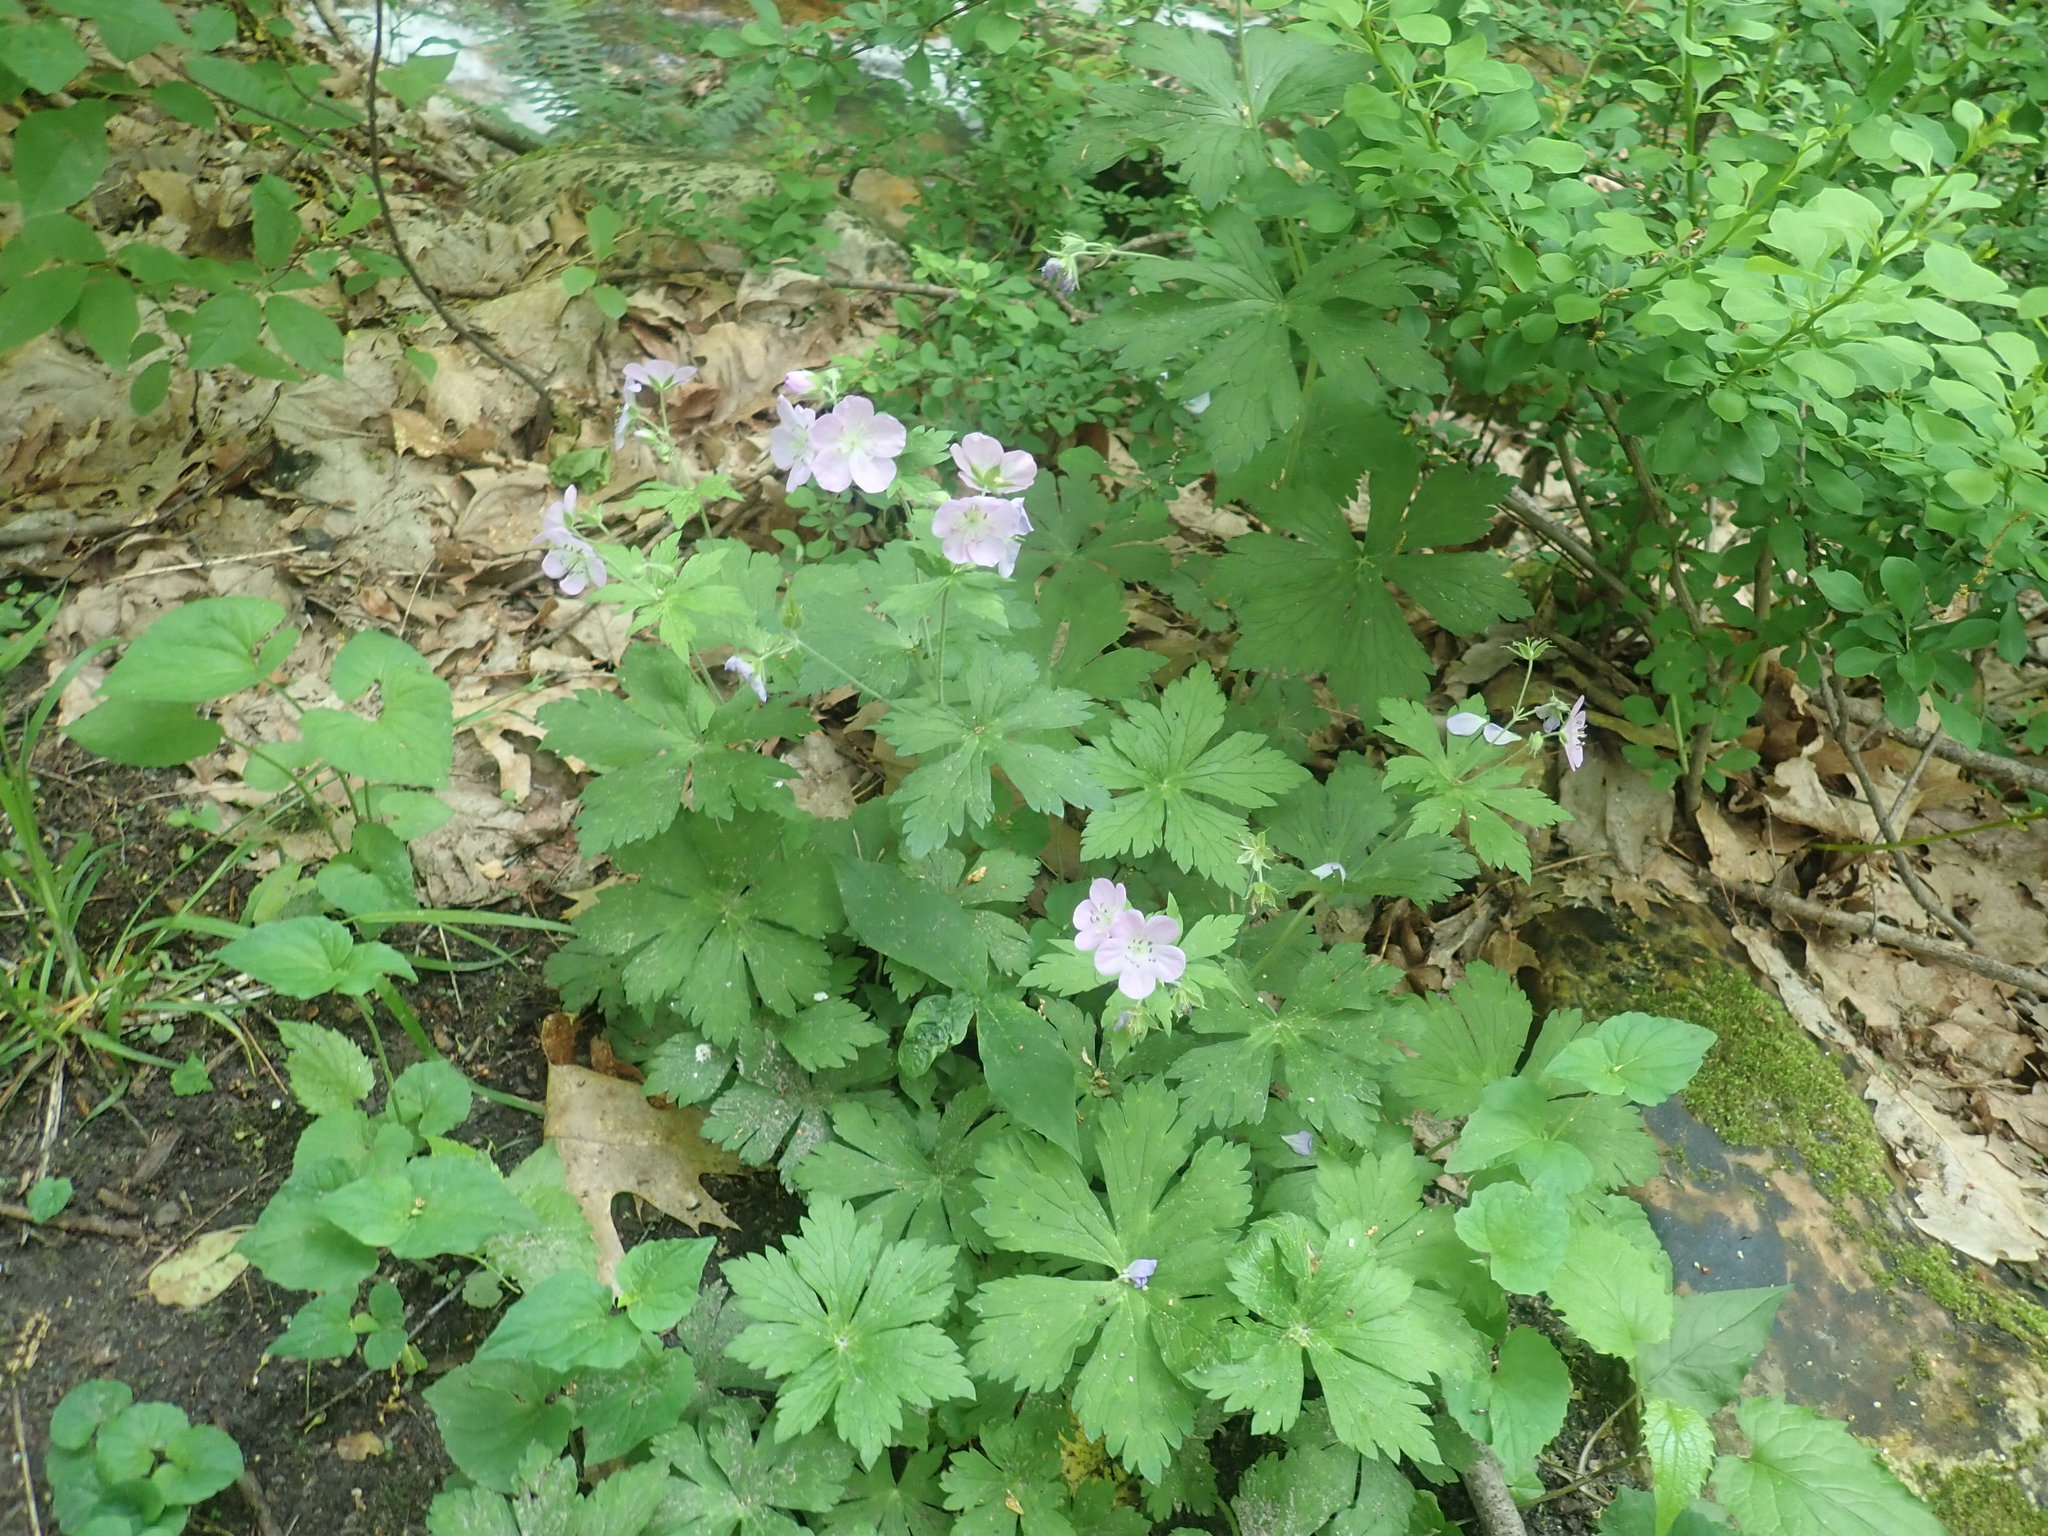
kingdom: Plantae
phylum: Tracheophyta
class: Magnoliopsida
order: Geraniales
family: Geraniaceae
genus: Geranium
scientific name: Geranium maculatum
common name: Spotted geranium
